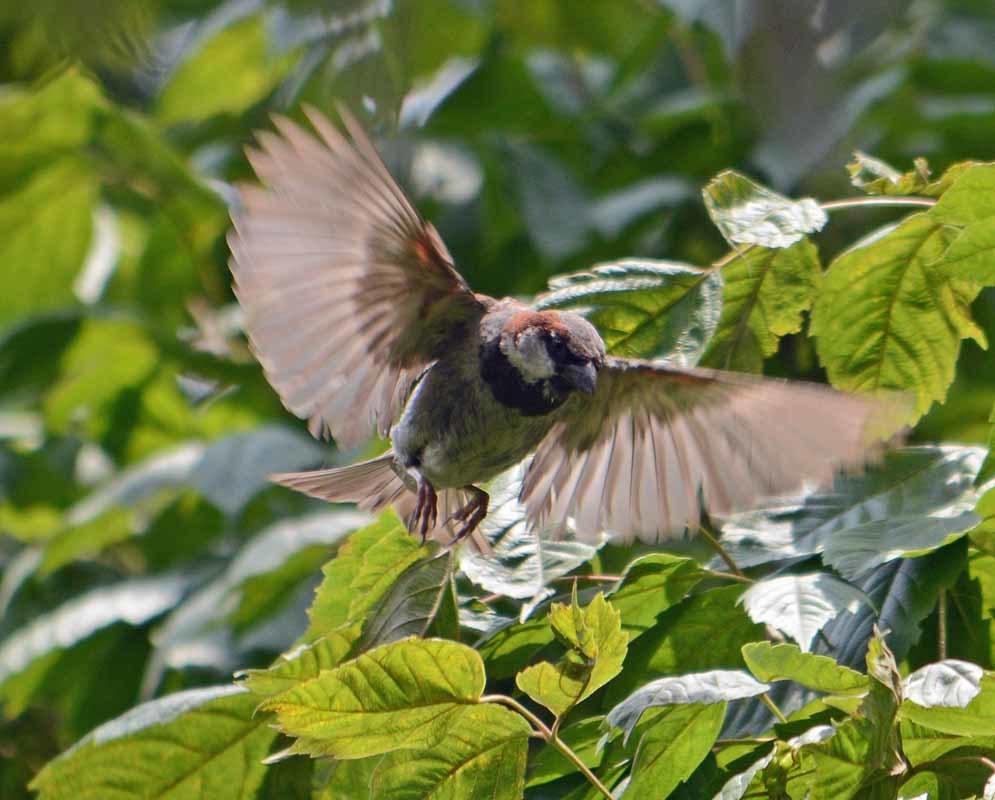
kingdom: Animalia
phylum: Chordata
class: Aves
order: Passeriformes
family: Passeridae
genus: Passer
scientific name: Passer domesticus
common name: House sparrow
